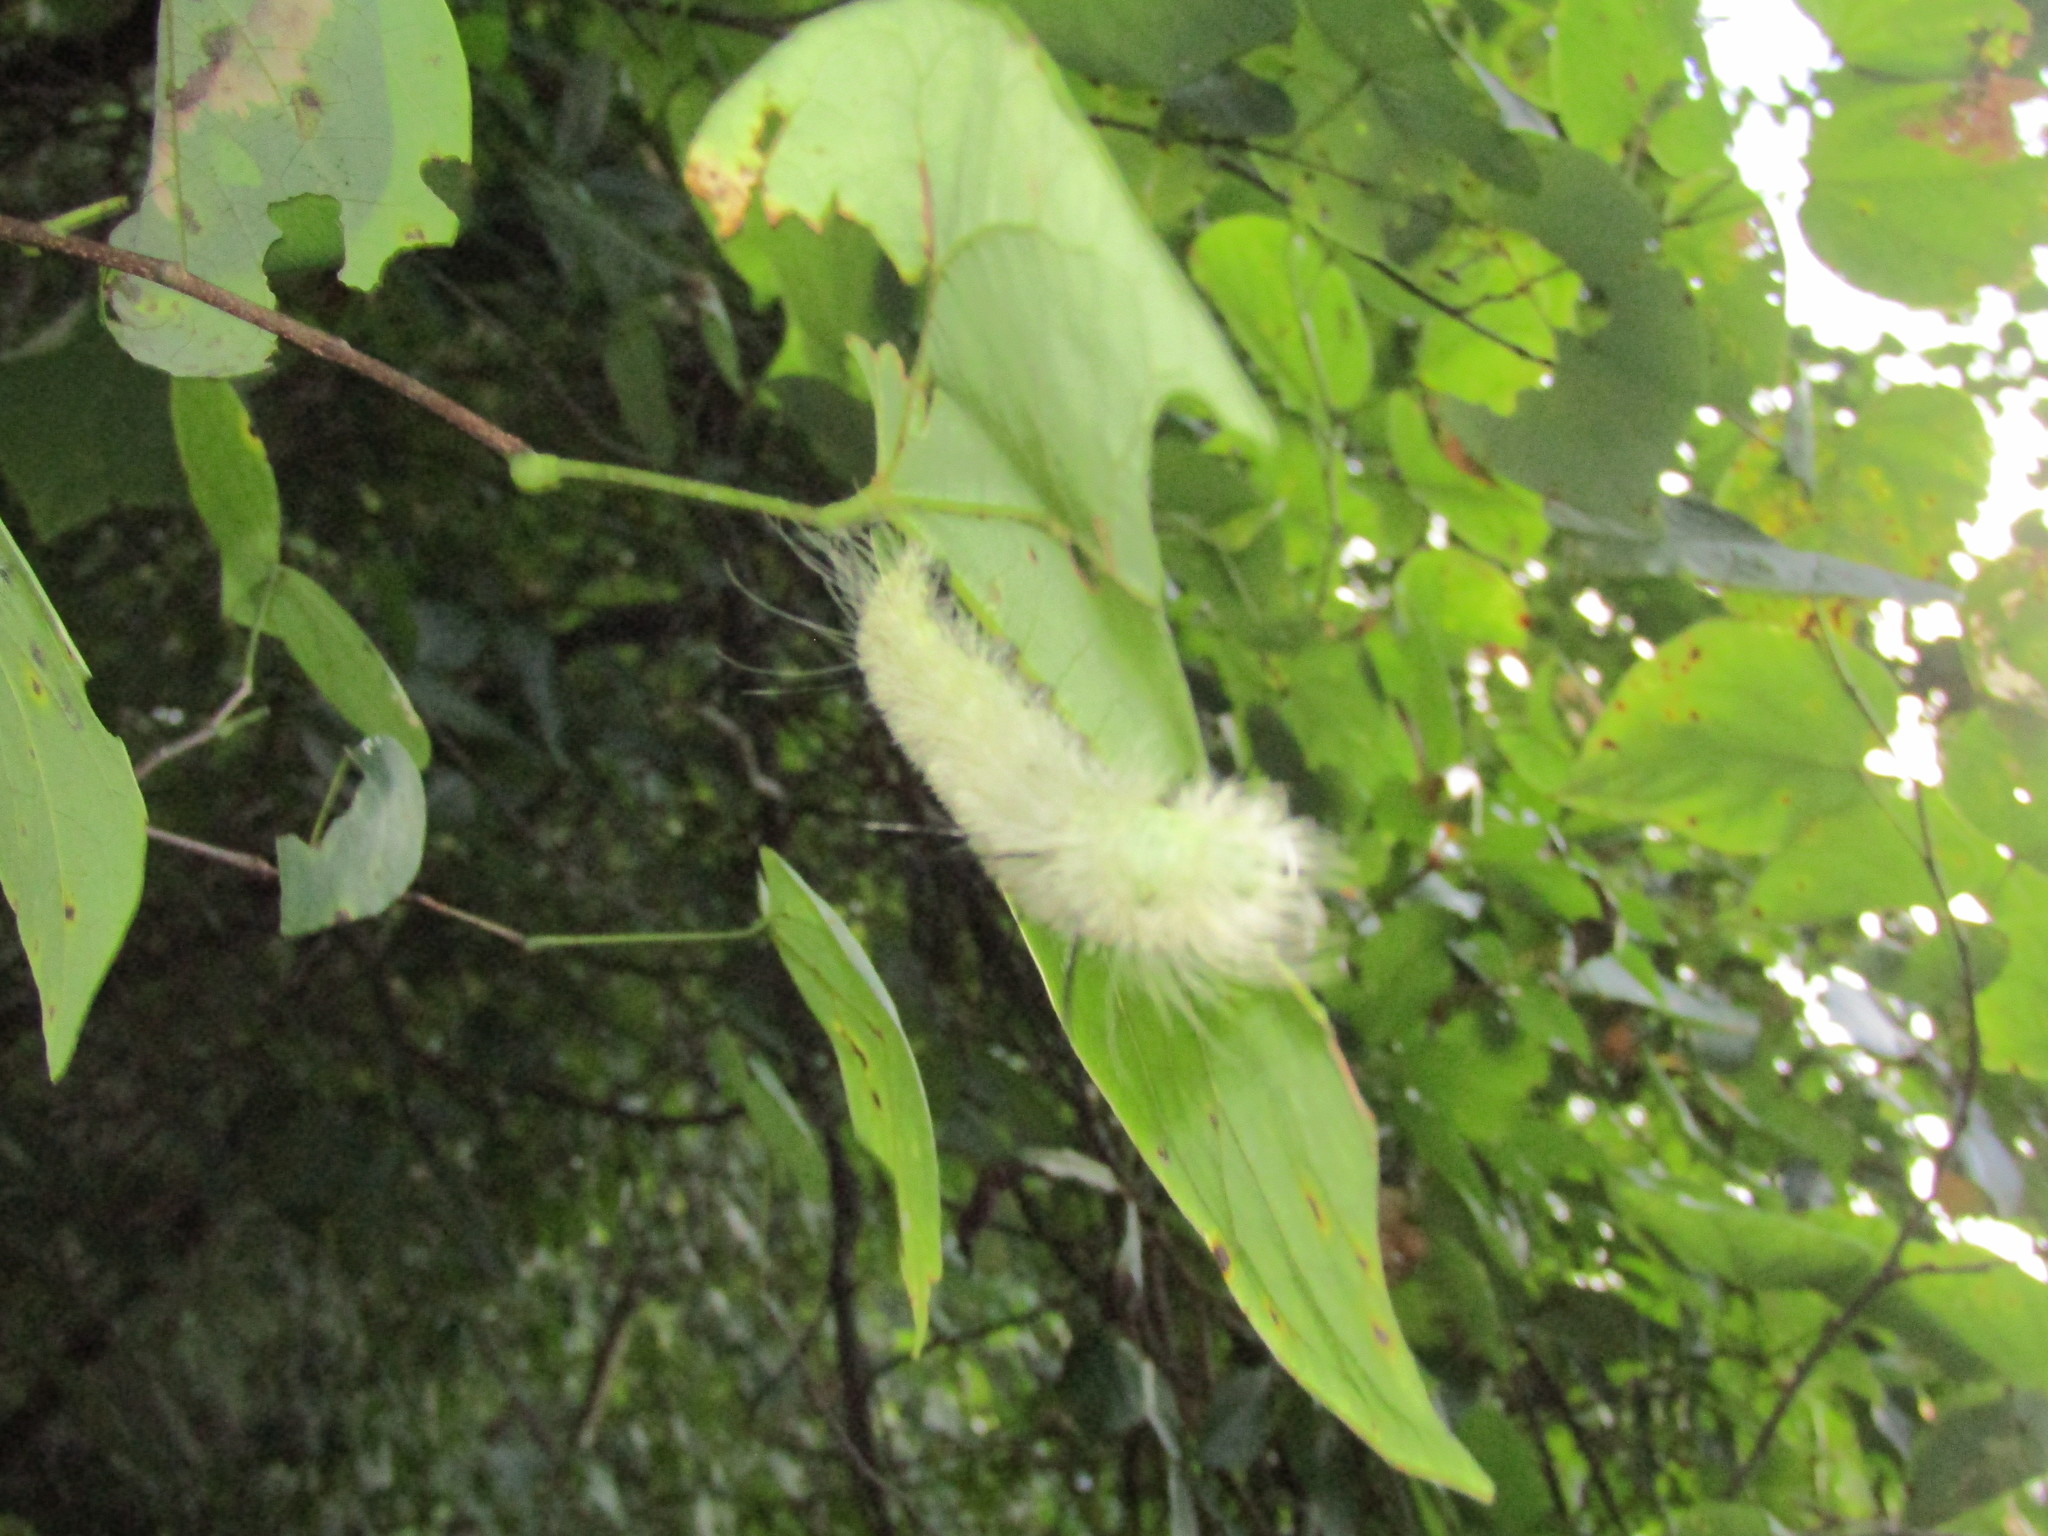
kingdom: Animalia
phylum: Arthropoda
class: Insecta
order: Lepidoptera
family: Noctuidae
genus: Acronicta
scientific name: Acronicta americana
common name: American dagger
